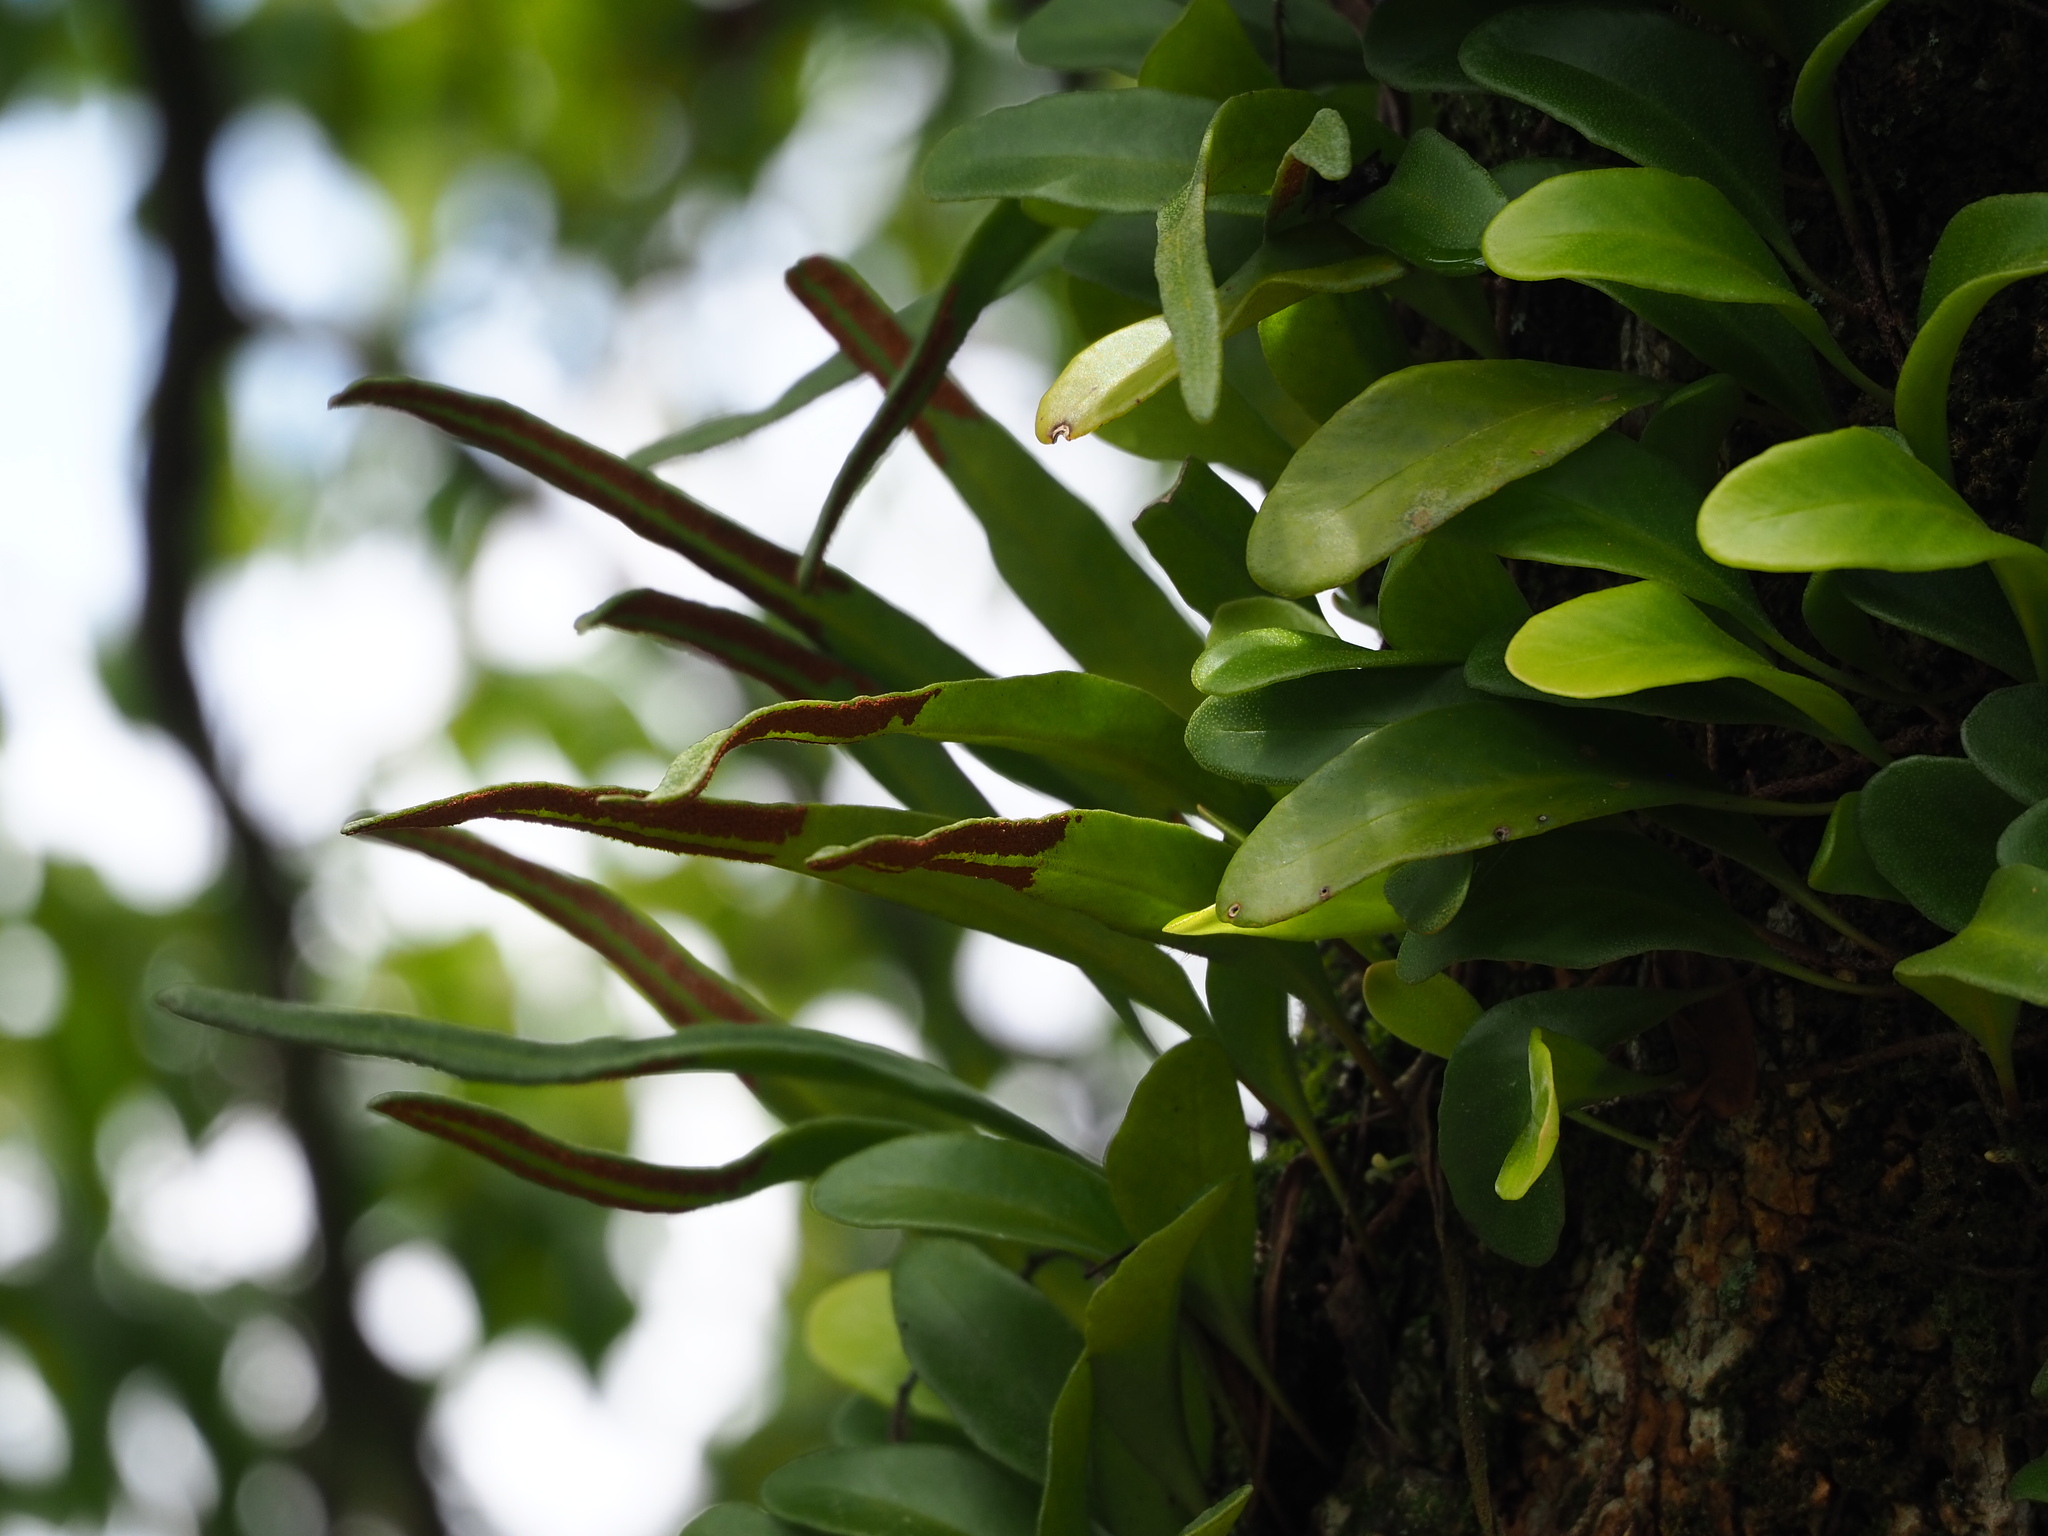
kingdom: Plantae
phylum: Tracheophyta
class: Polypodiopsida
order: Polypodiales
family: Polypodiaceae
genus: Pyrrosia
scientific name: Pyrrosia lanceolata
